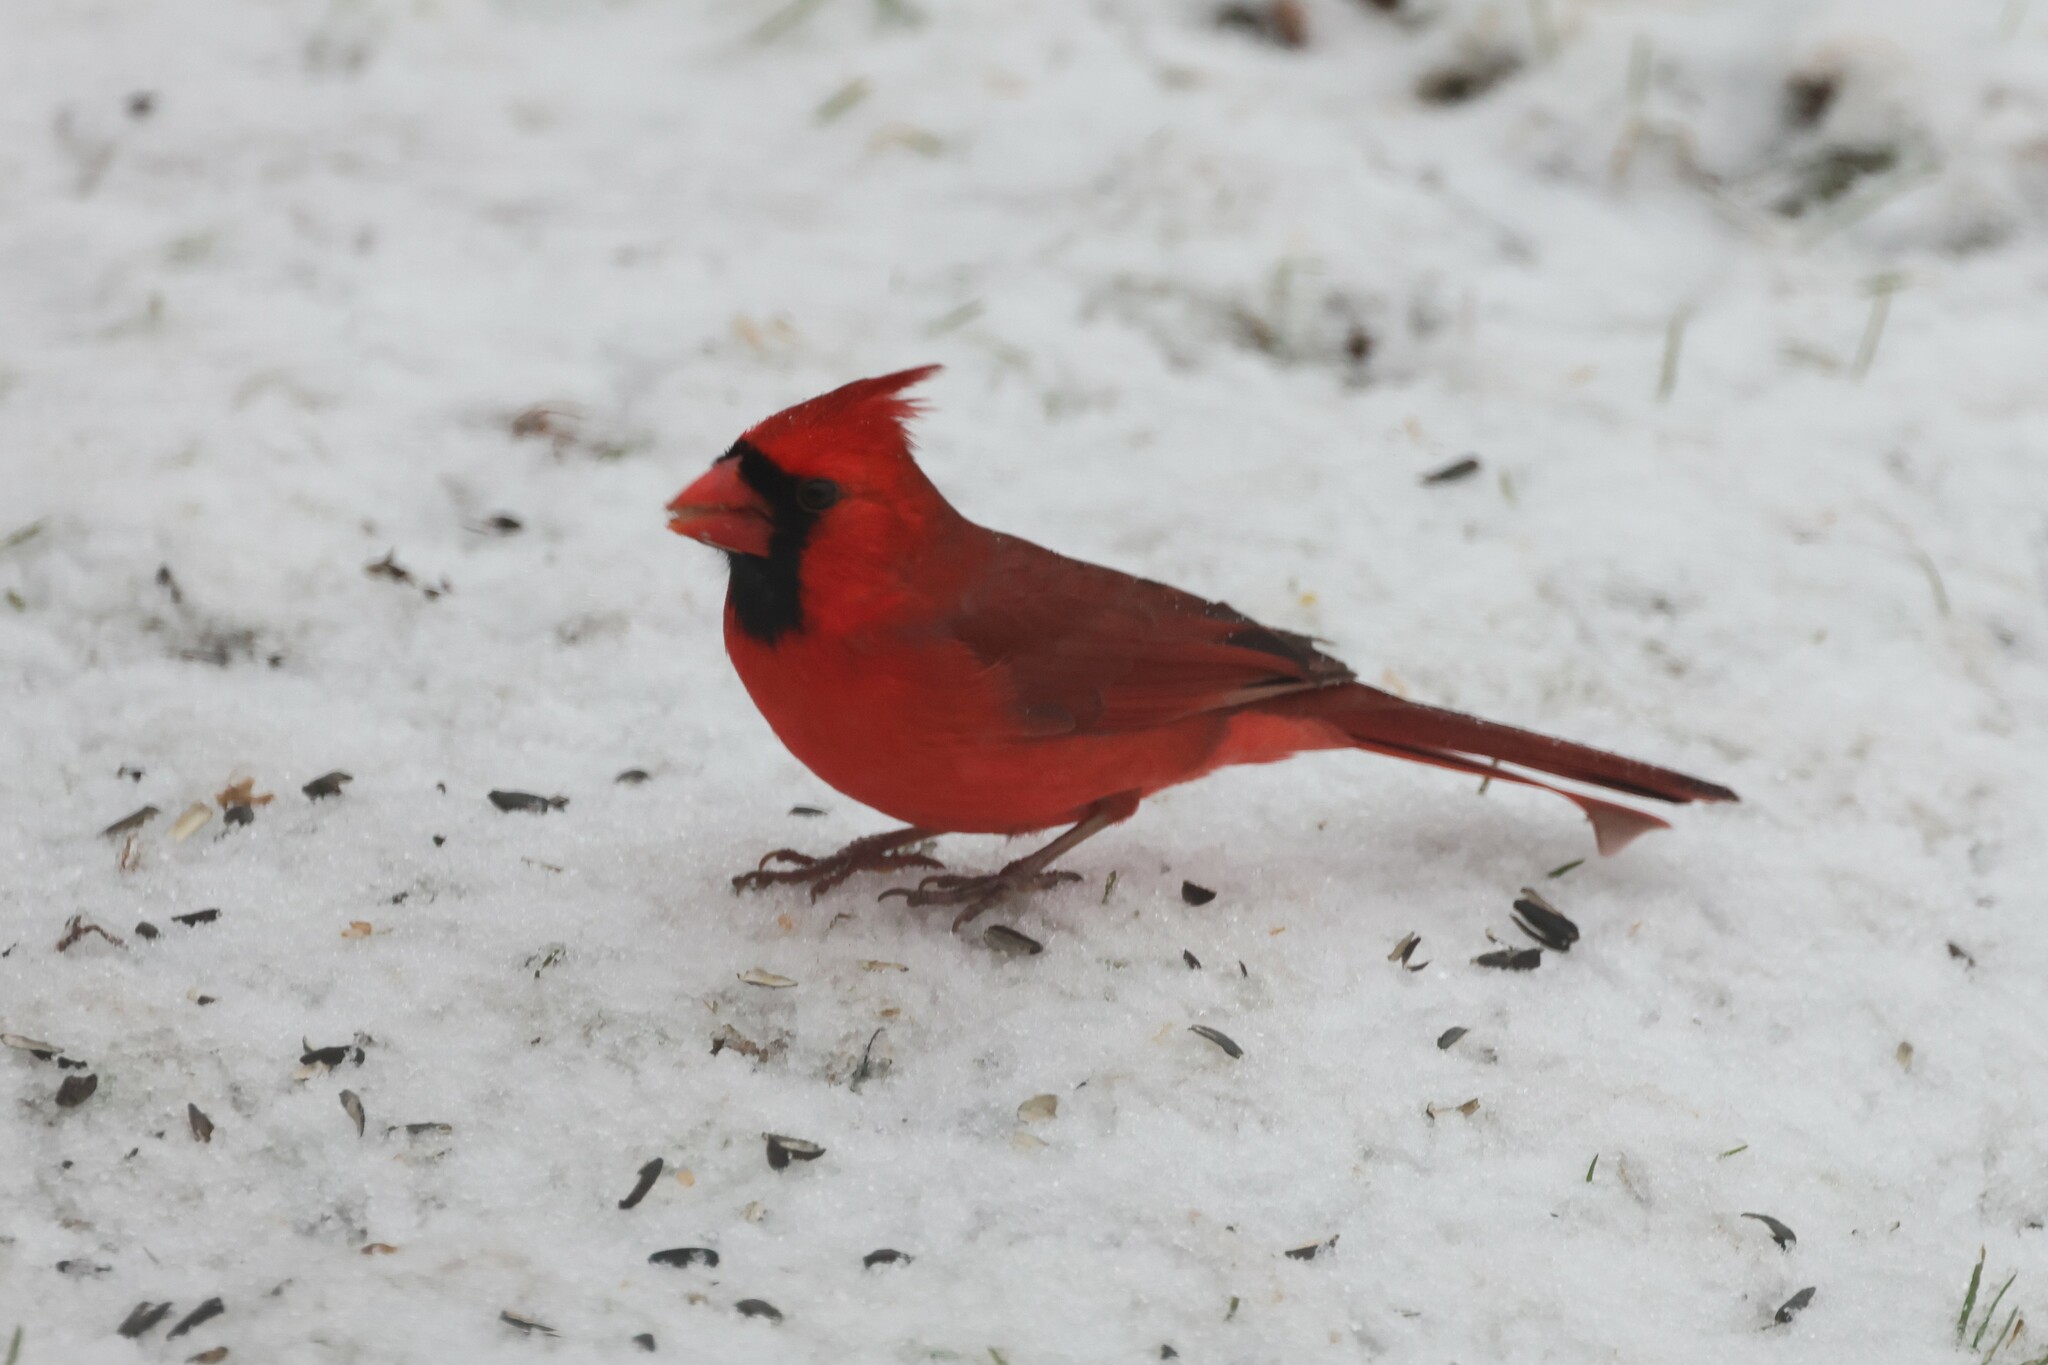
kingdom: Animalia
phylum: Chordata
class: Aves
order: Passeriformes
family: Cardinalidae
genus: Cardinalis
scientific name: Cardinalis cardinalis
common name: Northern cardinal
